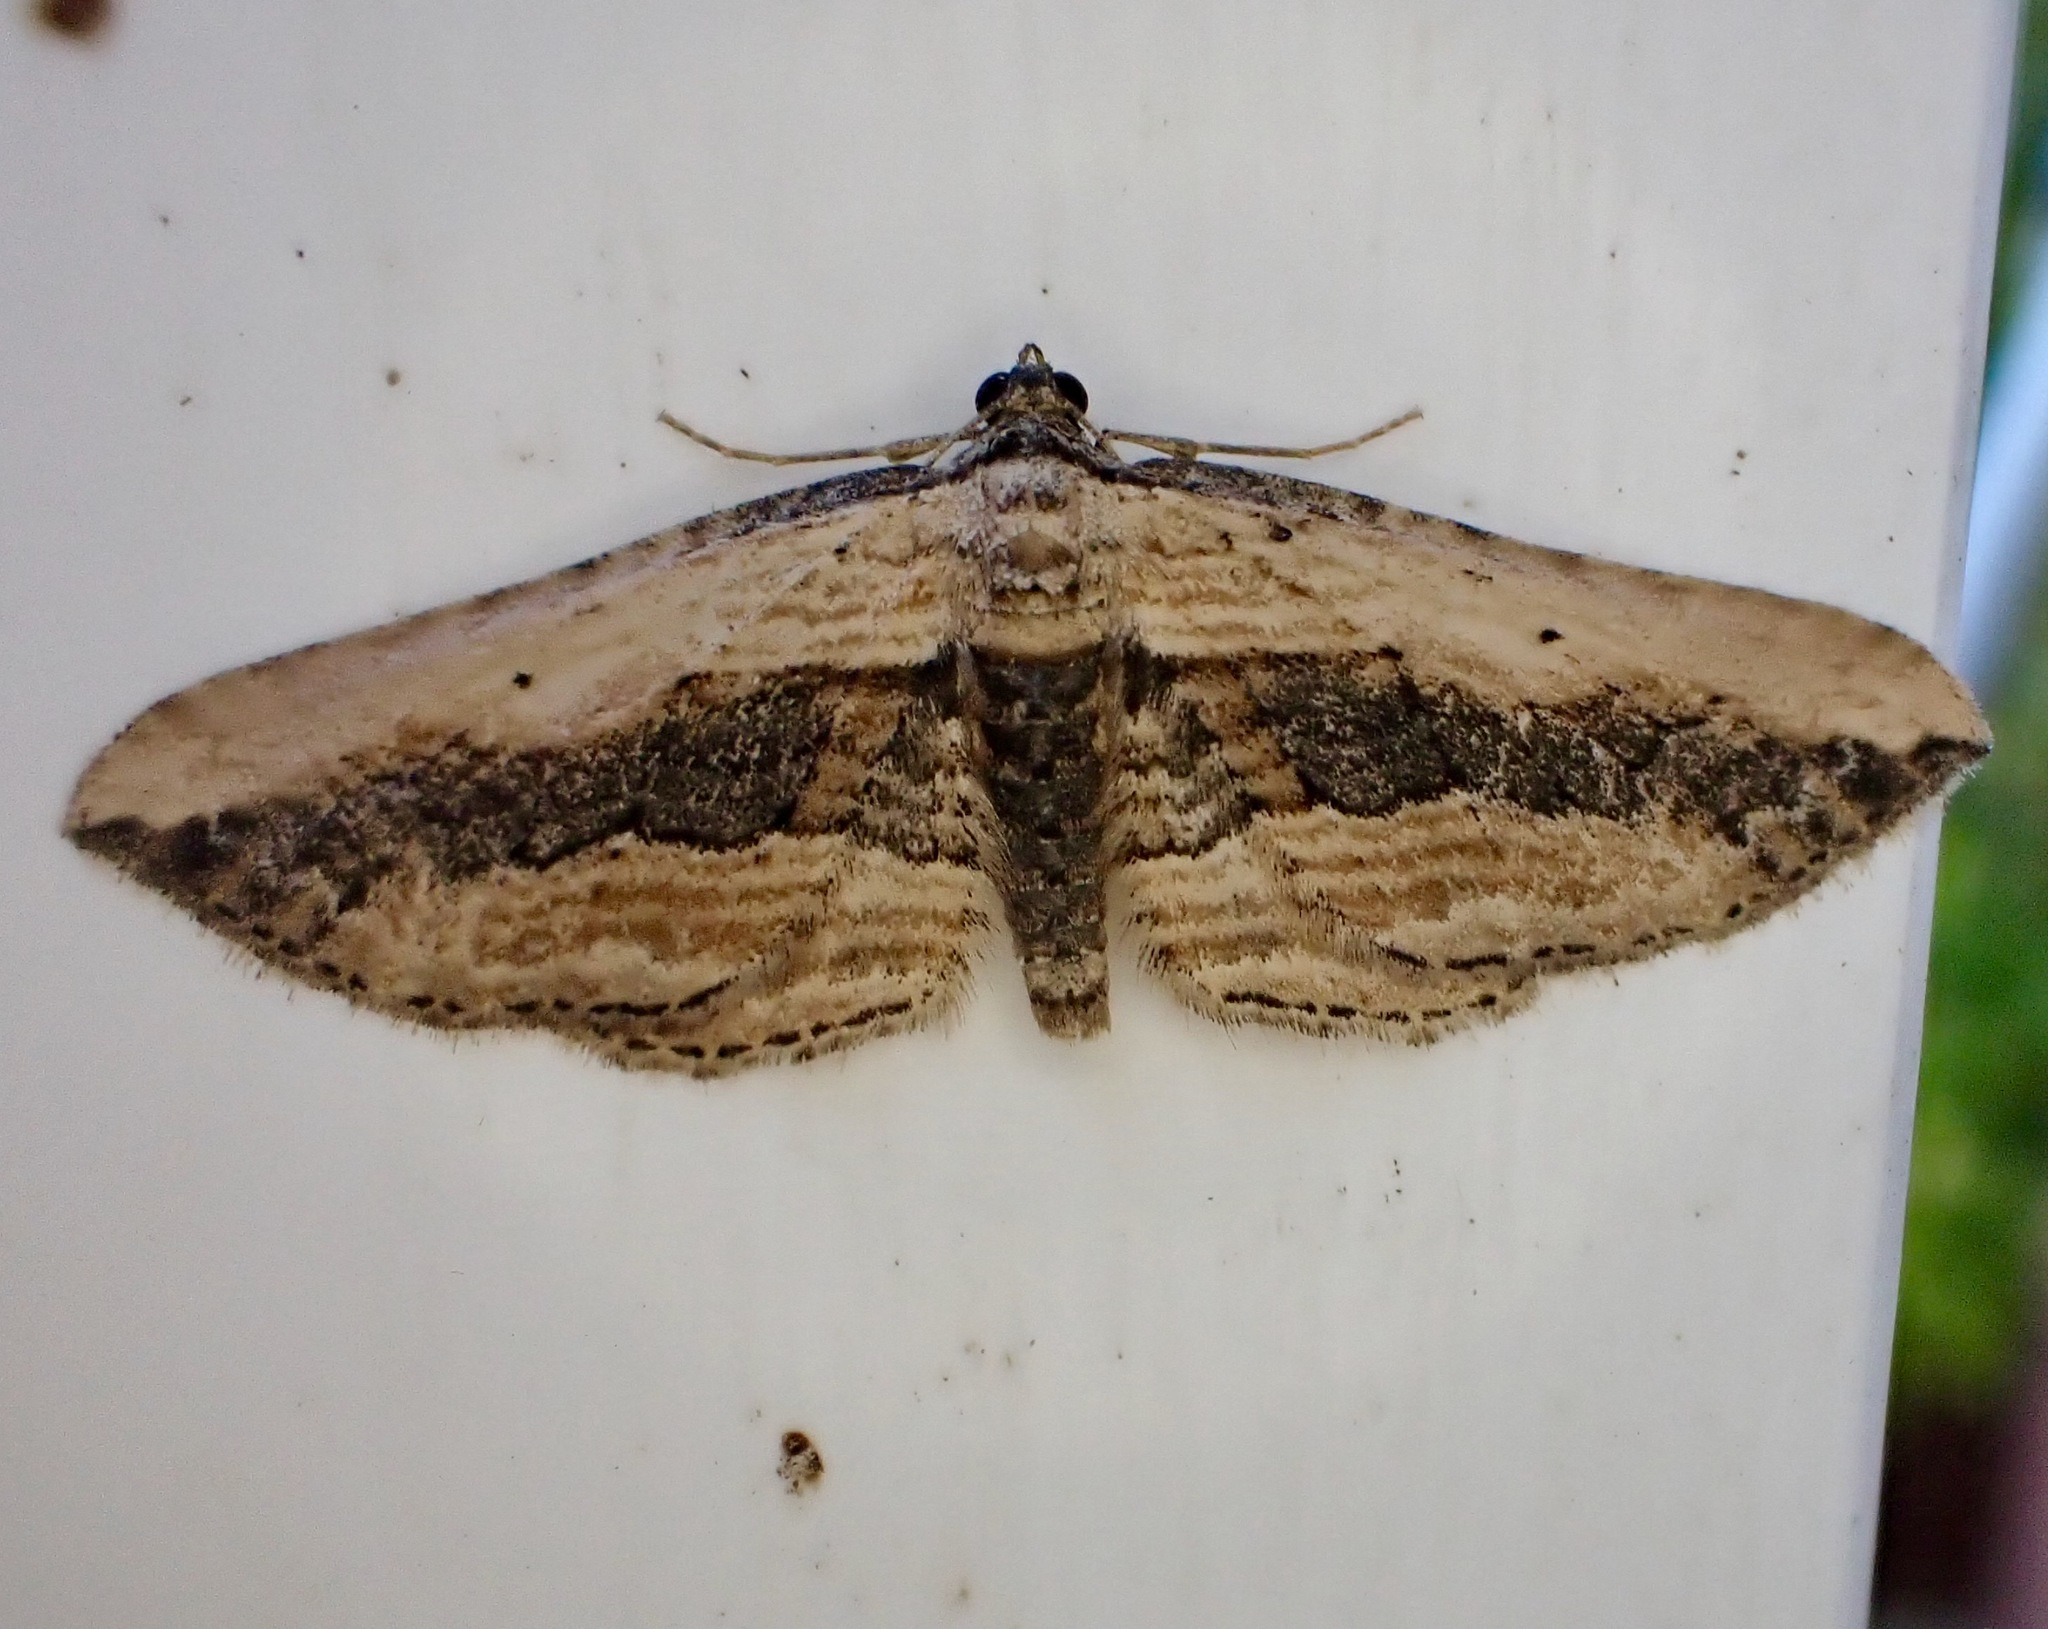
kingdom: Animalia
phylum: Arthropoda
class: Insecta
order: Lepidoptera
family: Geometridae
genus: Horisme
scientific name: Horisme vitalbata
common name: Small waved umber
